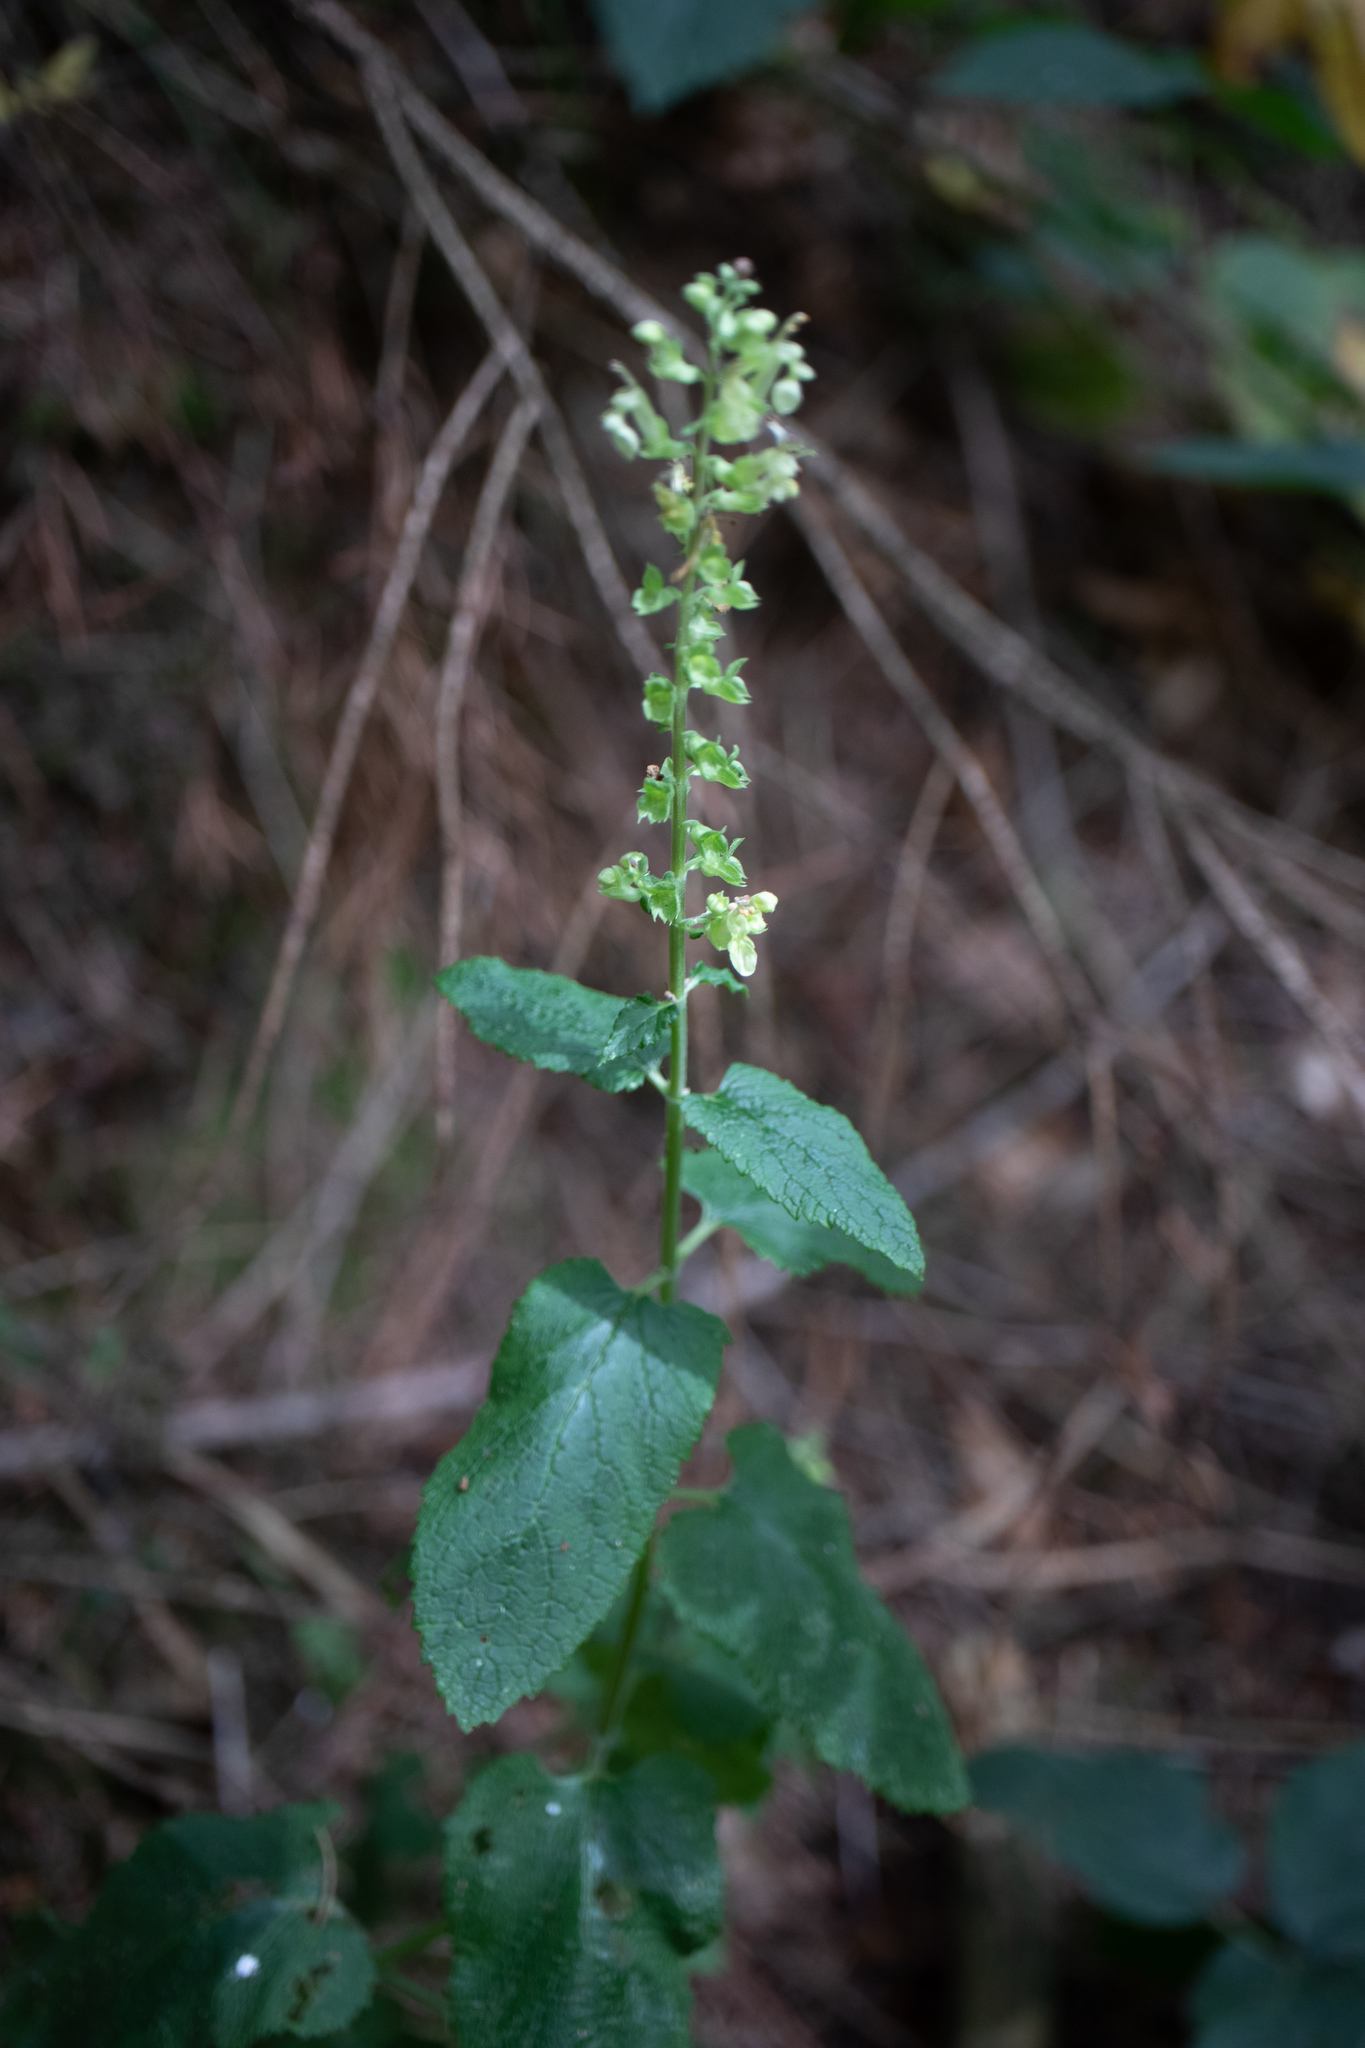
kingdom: Plantae
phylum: Tracheophyta
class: Magnoliopsida
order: Lamiales
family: Lamiaceae
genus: Teucrium
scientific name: Teucrium scorodonia
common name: Woodland germander
